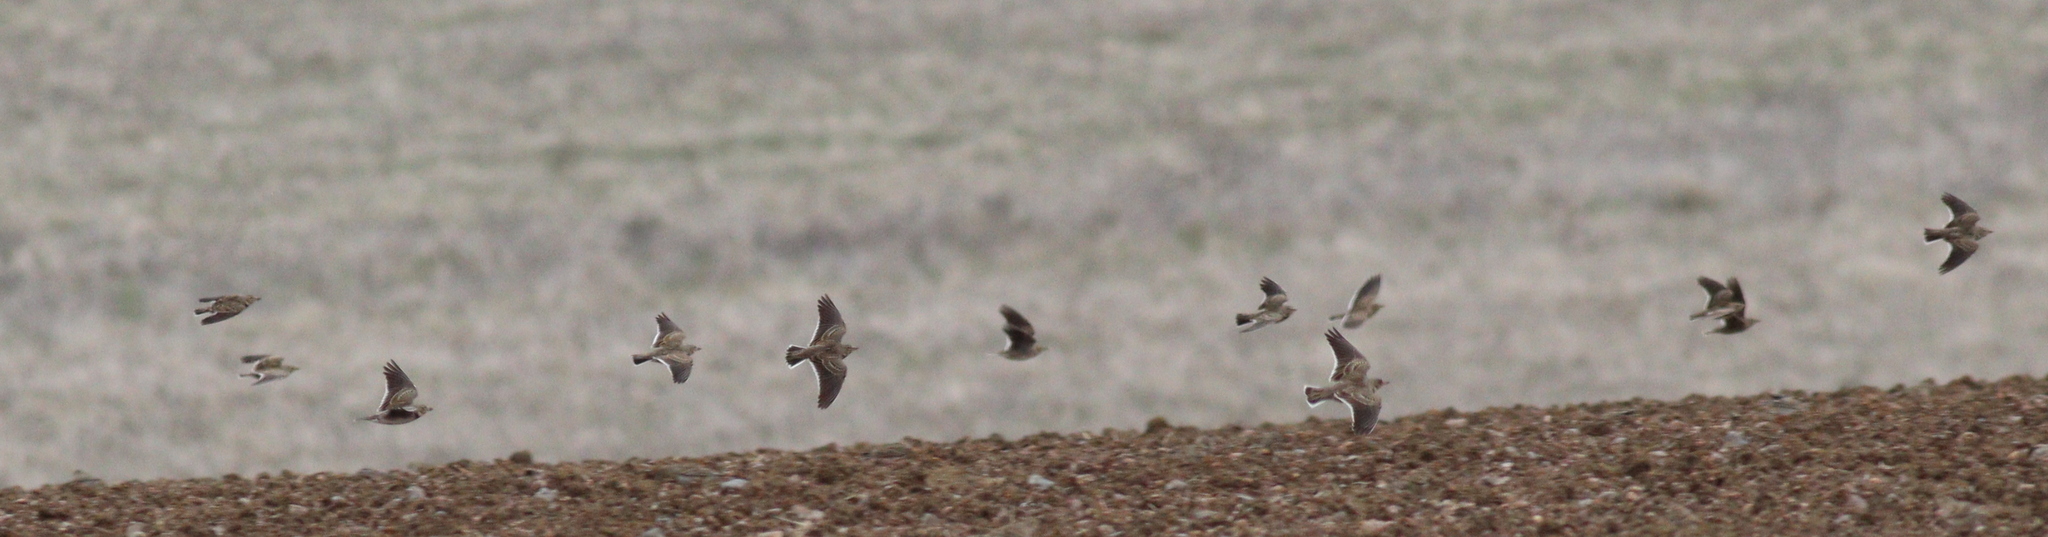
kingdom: Animalia
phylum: Chordata
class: Aves
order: Passeriformes
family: Alaudidae
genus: Melanocorypha
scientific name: Melanocorypha calandra
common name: Calandra lark
